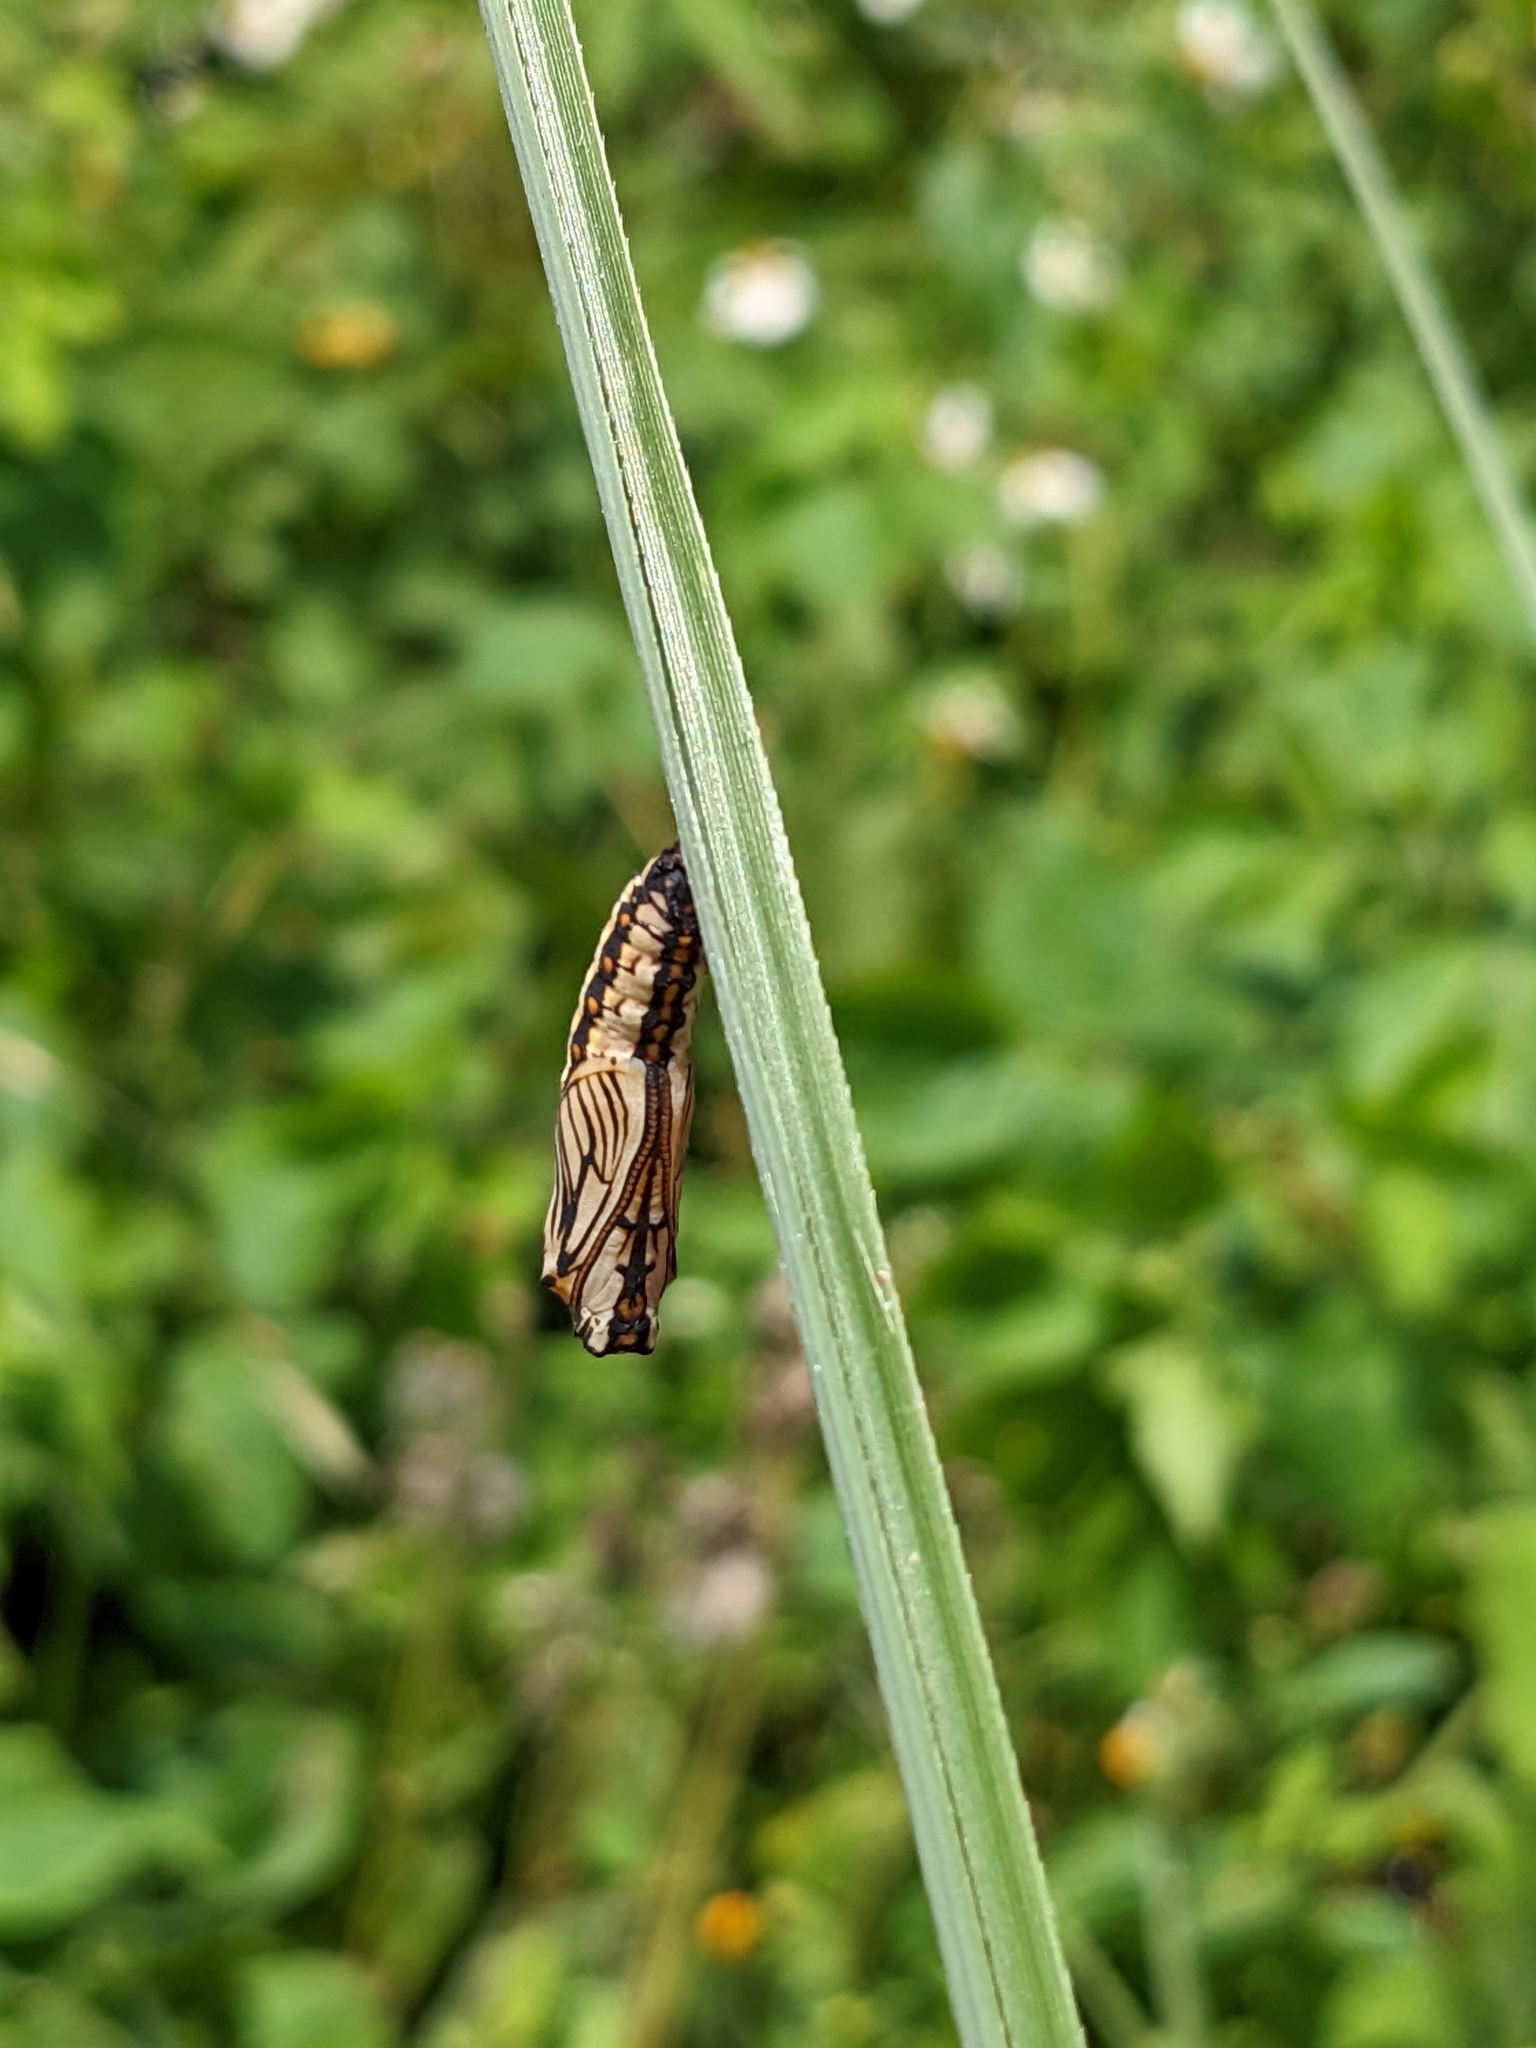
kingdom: Animalia
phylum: Arthropoda
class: Insecta
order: Lepidoptera
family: Nymphalidae
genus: Acraea
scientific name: Acraea Telchinia issoria
